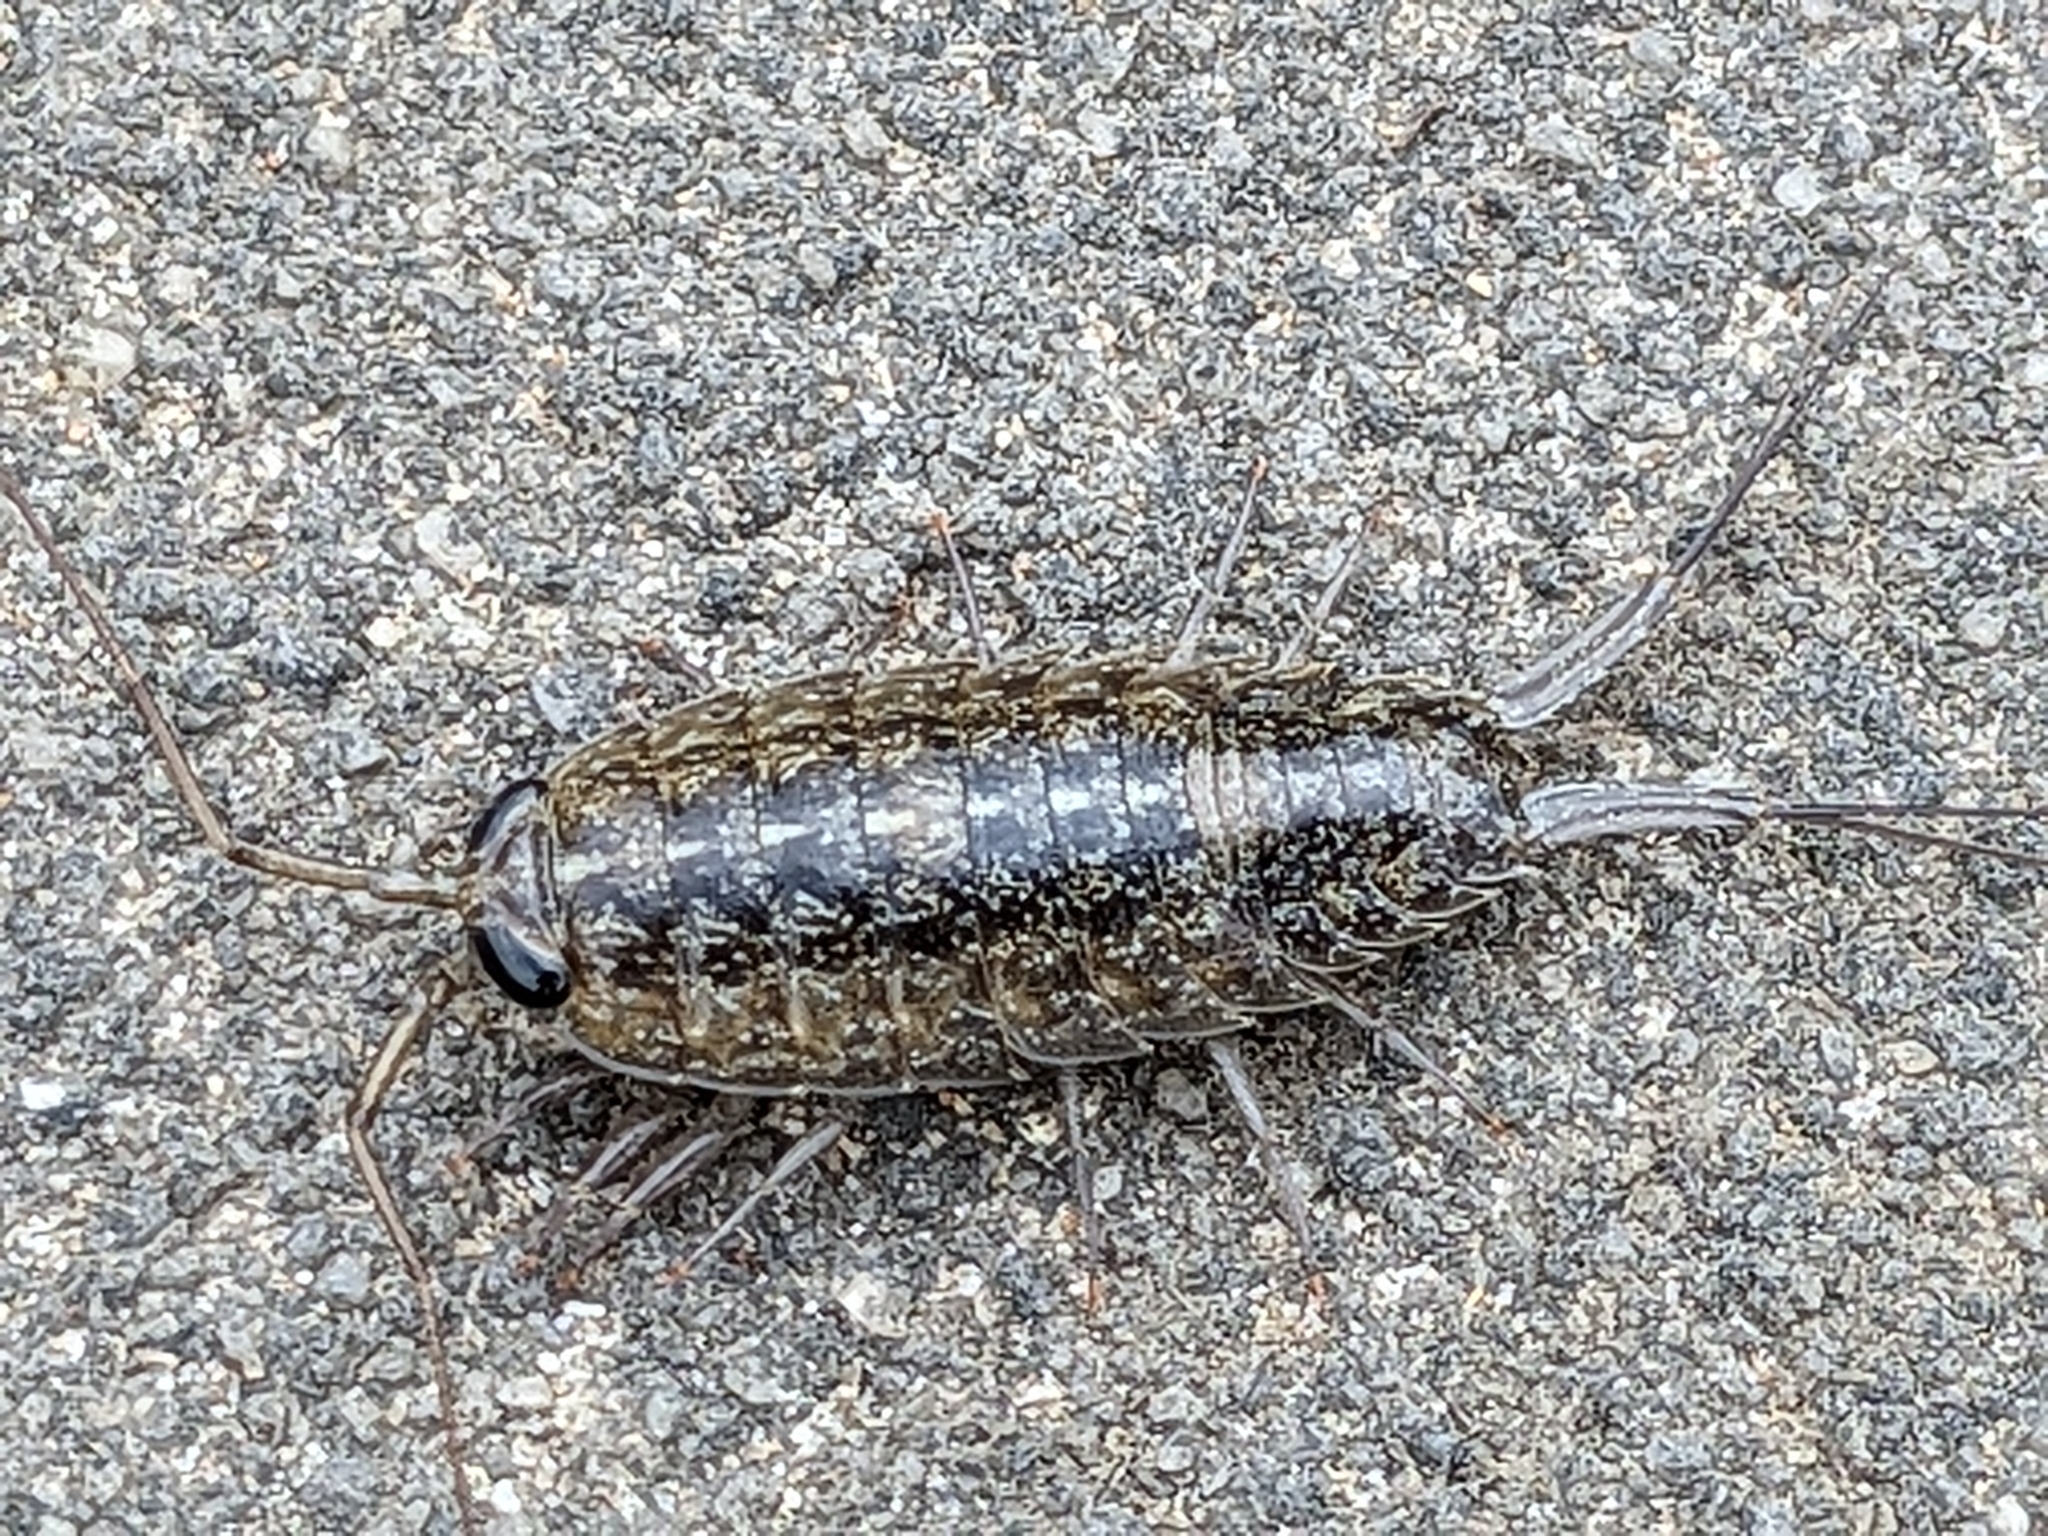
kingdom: Animalia
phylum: Arthropoda
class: Malacostraca
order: Isopoda
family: Ligiidae
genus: Ligia
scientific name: Ligia exotica
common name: Wharf roach
